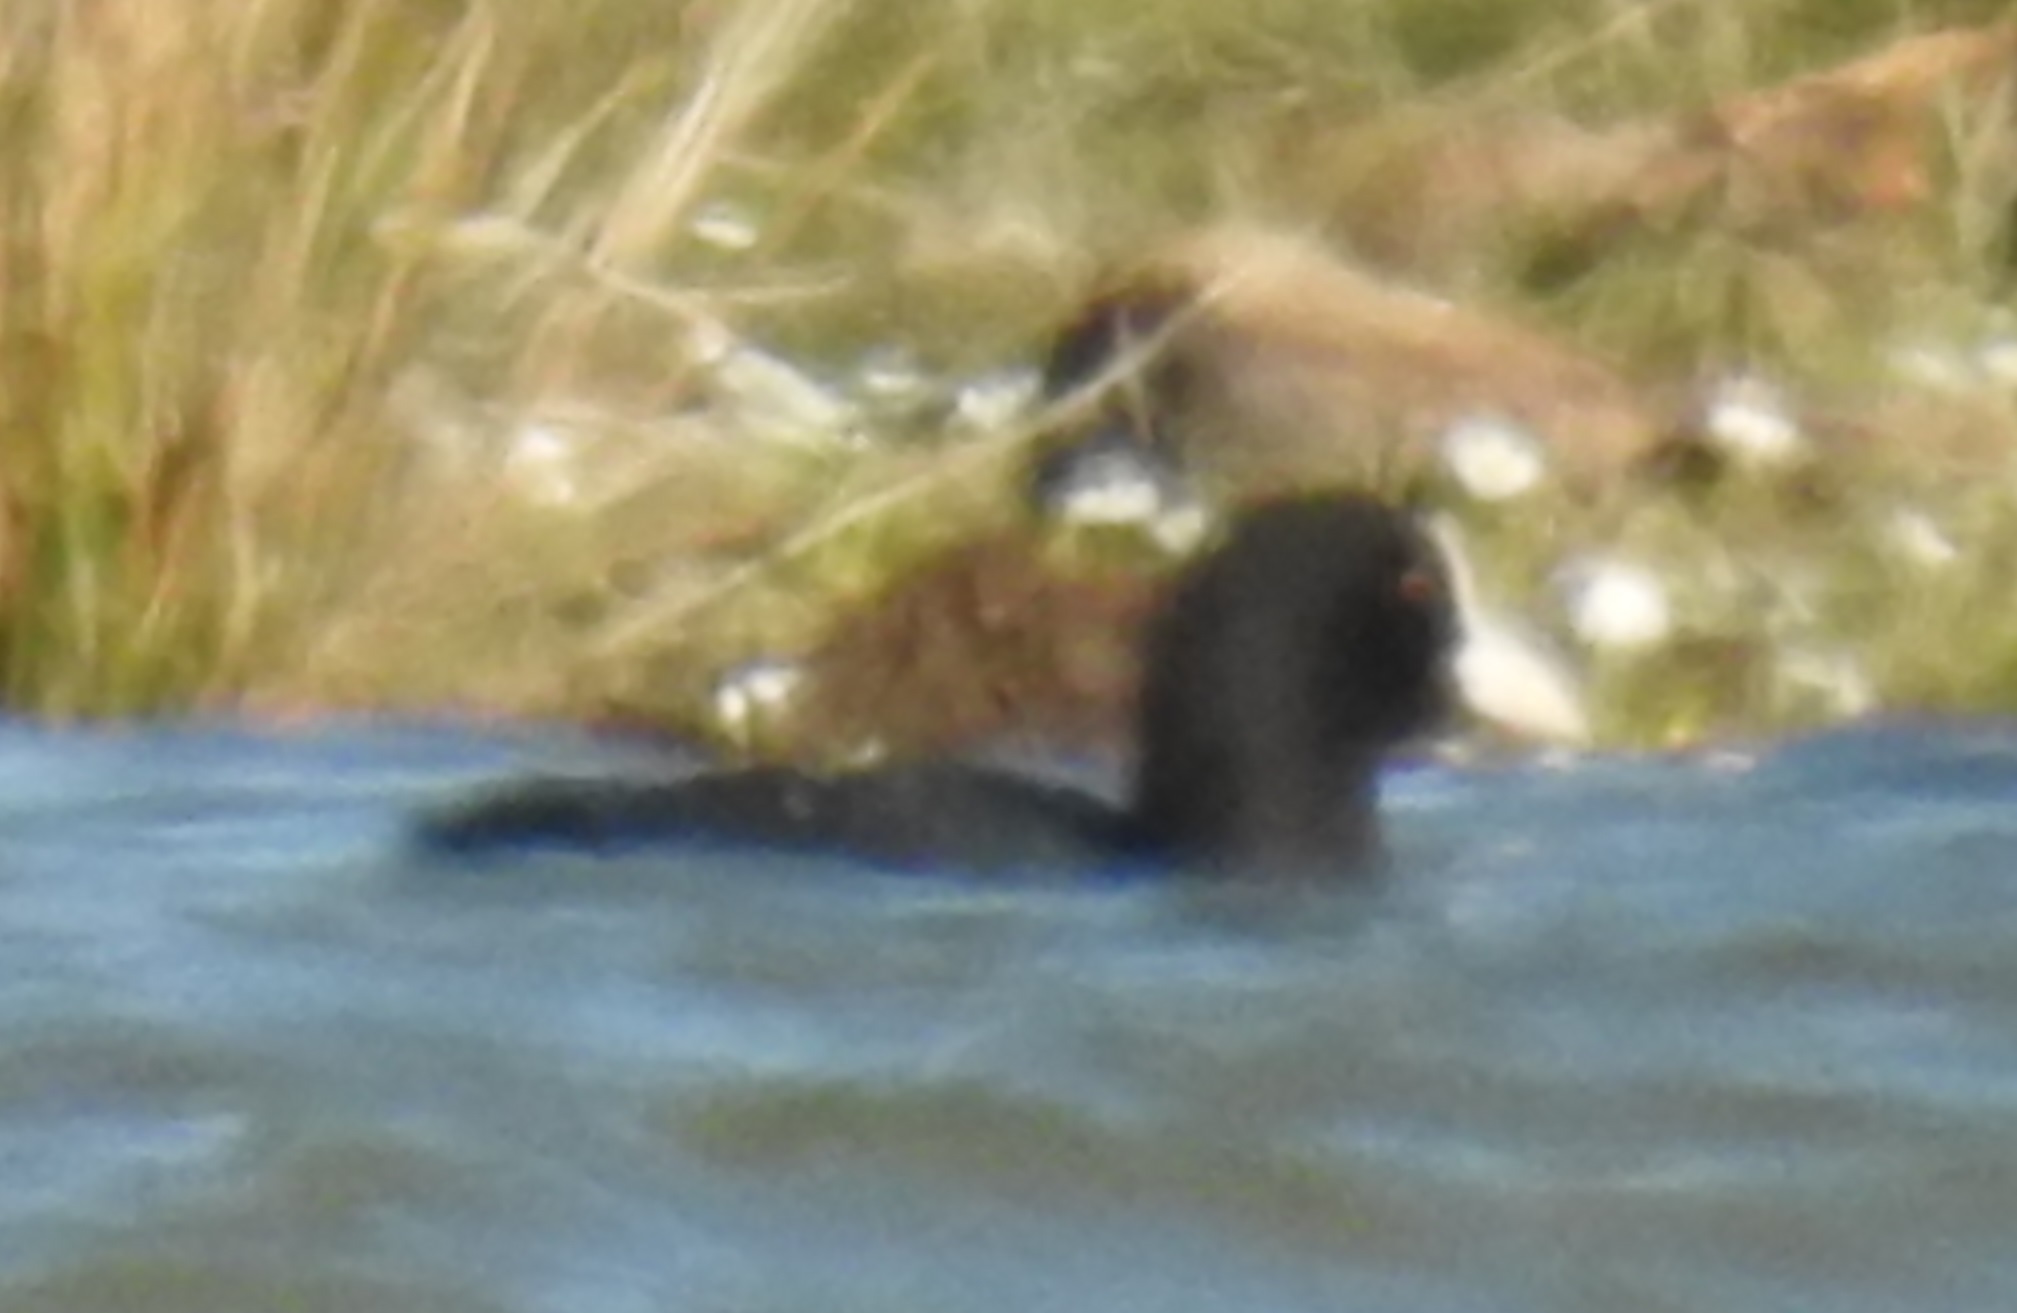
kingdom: Animalia
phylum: Chordata
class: Aves
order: Gruiformes
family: Rallidae
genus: Fulica
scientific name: Fulica atra
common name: Eurasian coot
